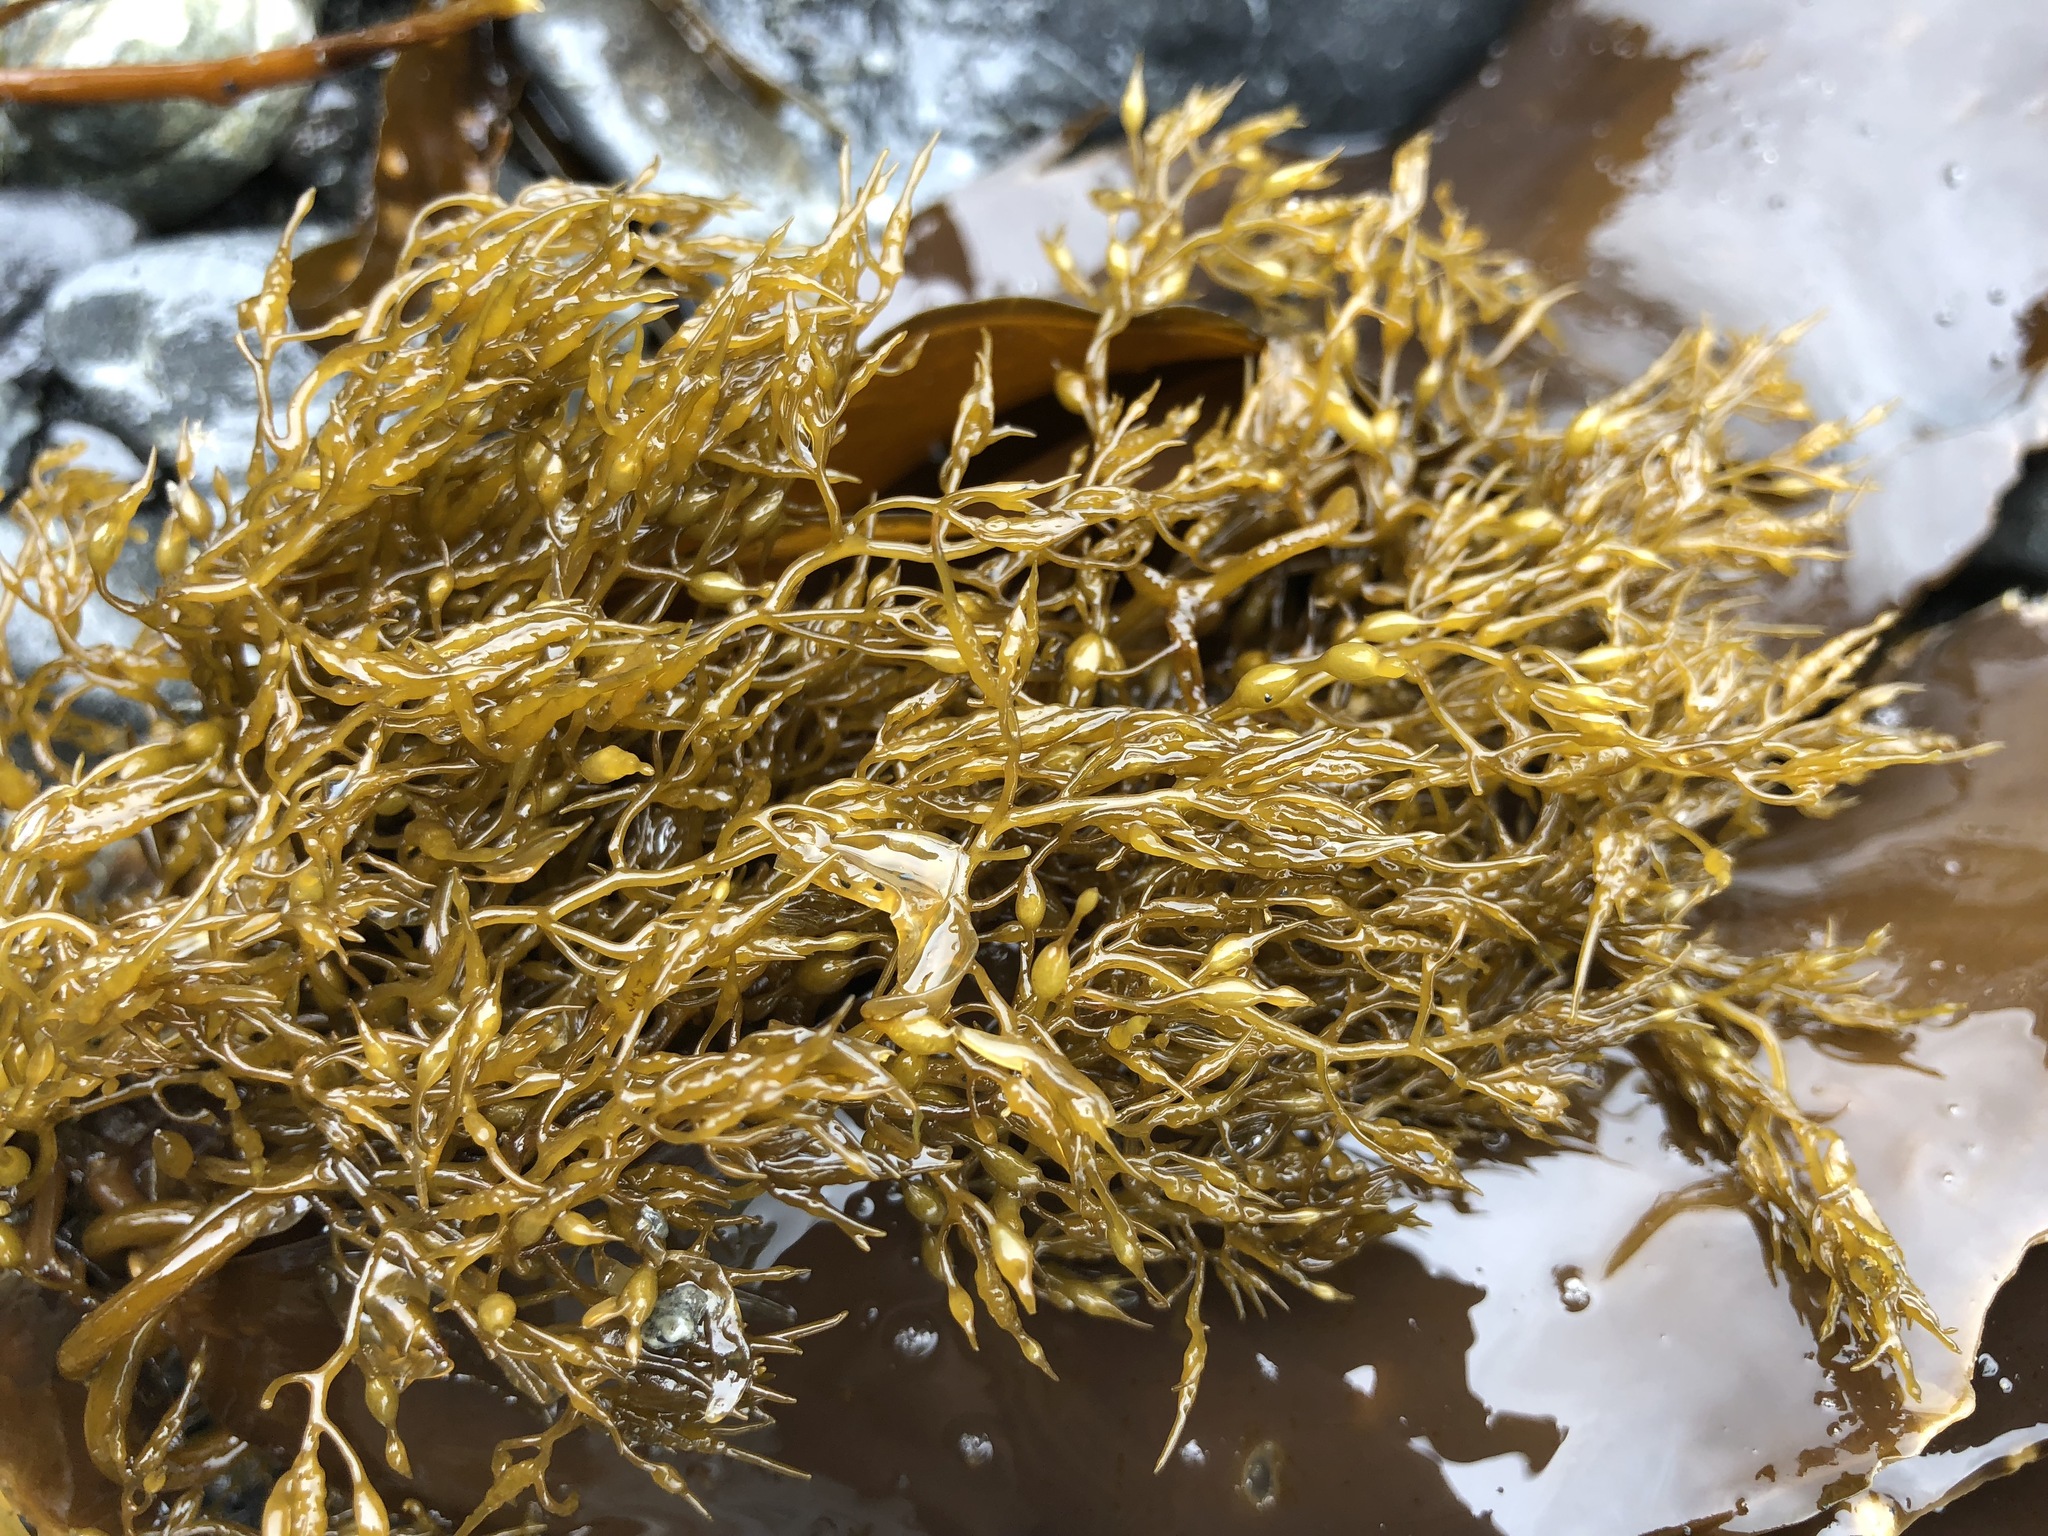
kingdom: Chromista
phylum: Ochrophyta
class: Phaeophyceae
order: Fucales
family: Sargassaceae
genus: Stephanocystis
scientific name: Stephanocystis geminata
